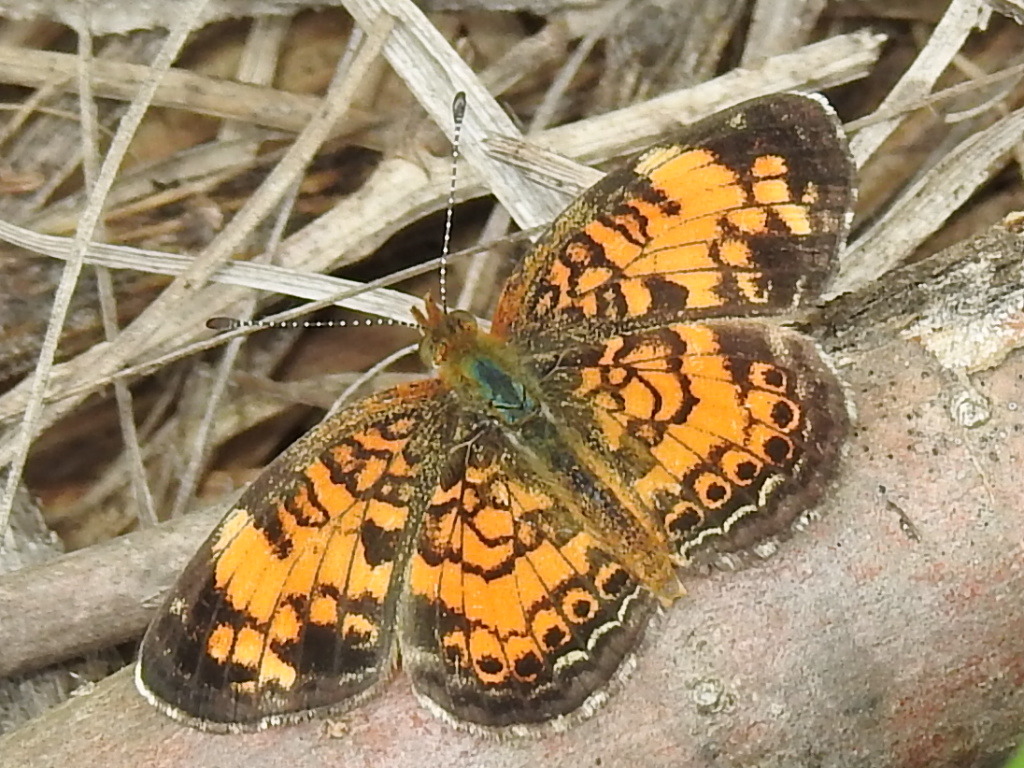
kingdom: Animalia
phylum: Arthropoda
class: Insecta
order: Lepidoptera
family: Nymphalidae
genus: Phyciodes
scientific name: Phyciodes tharos
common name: Pearl crescent
